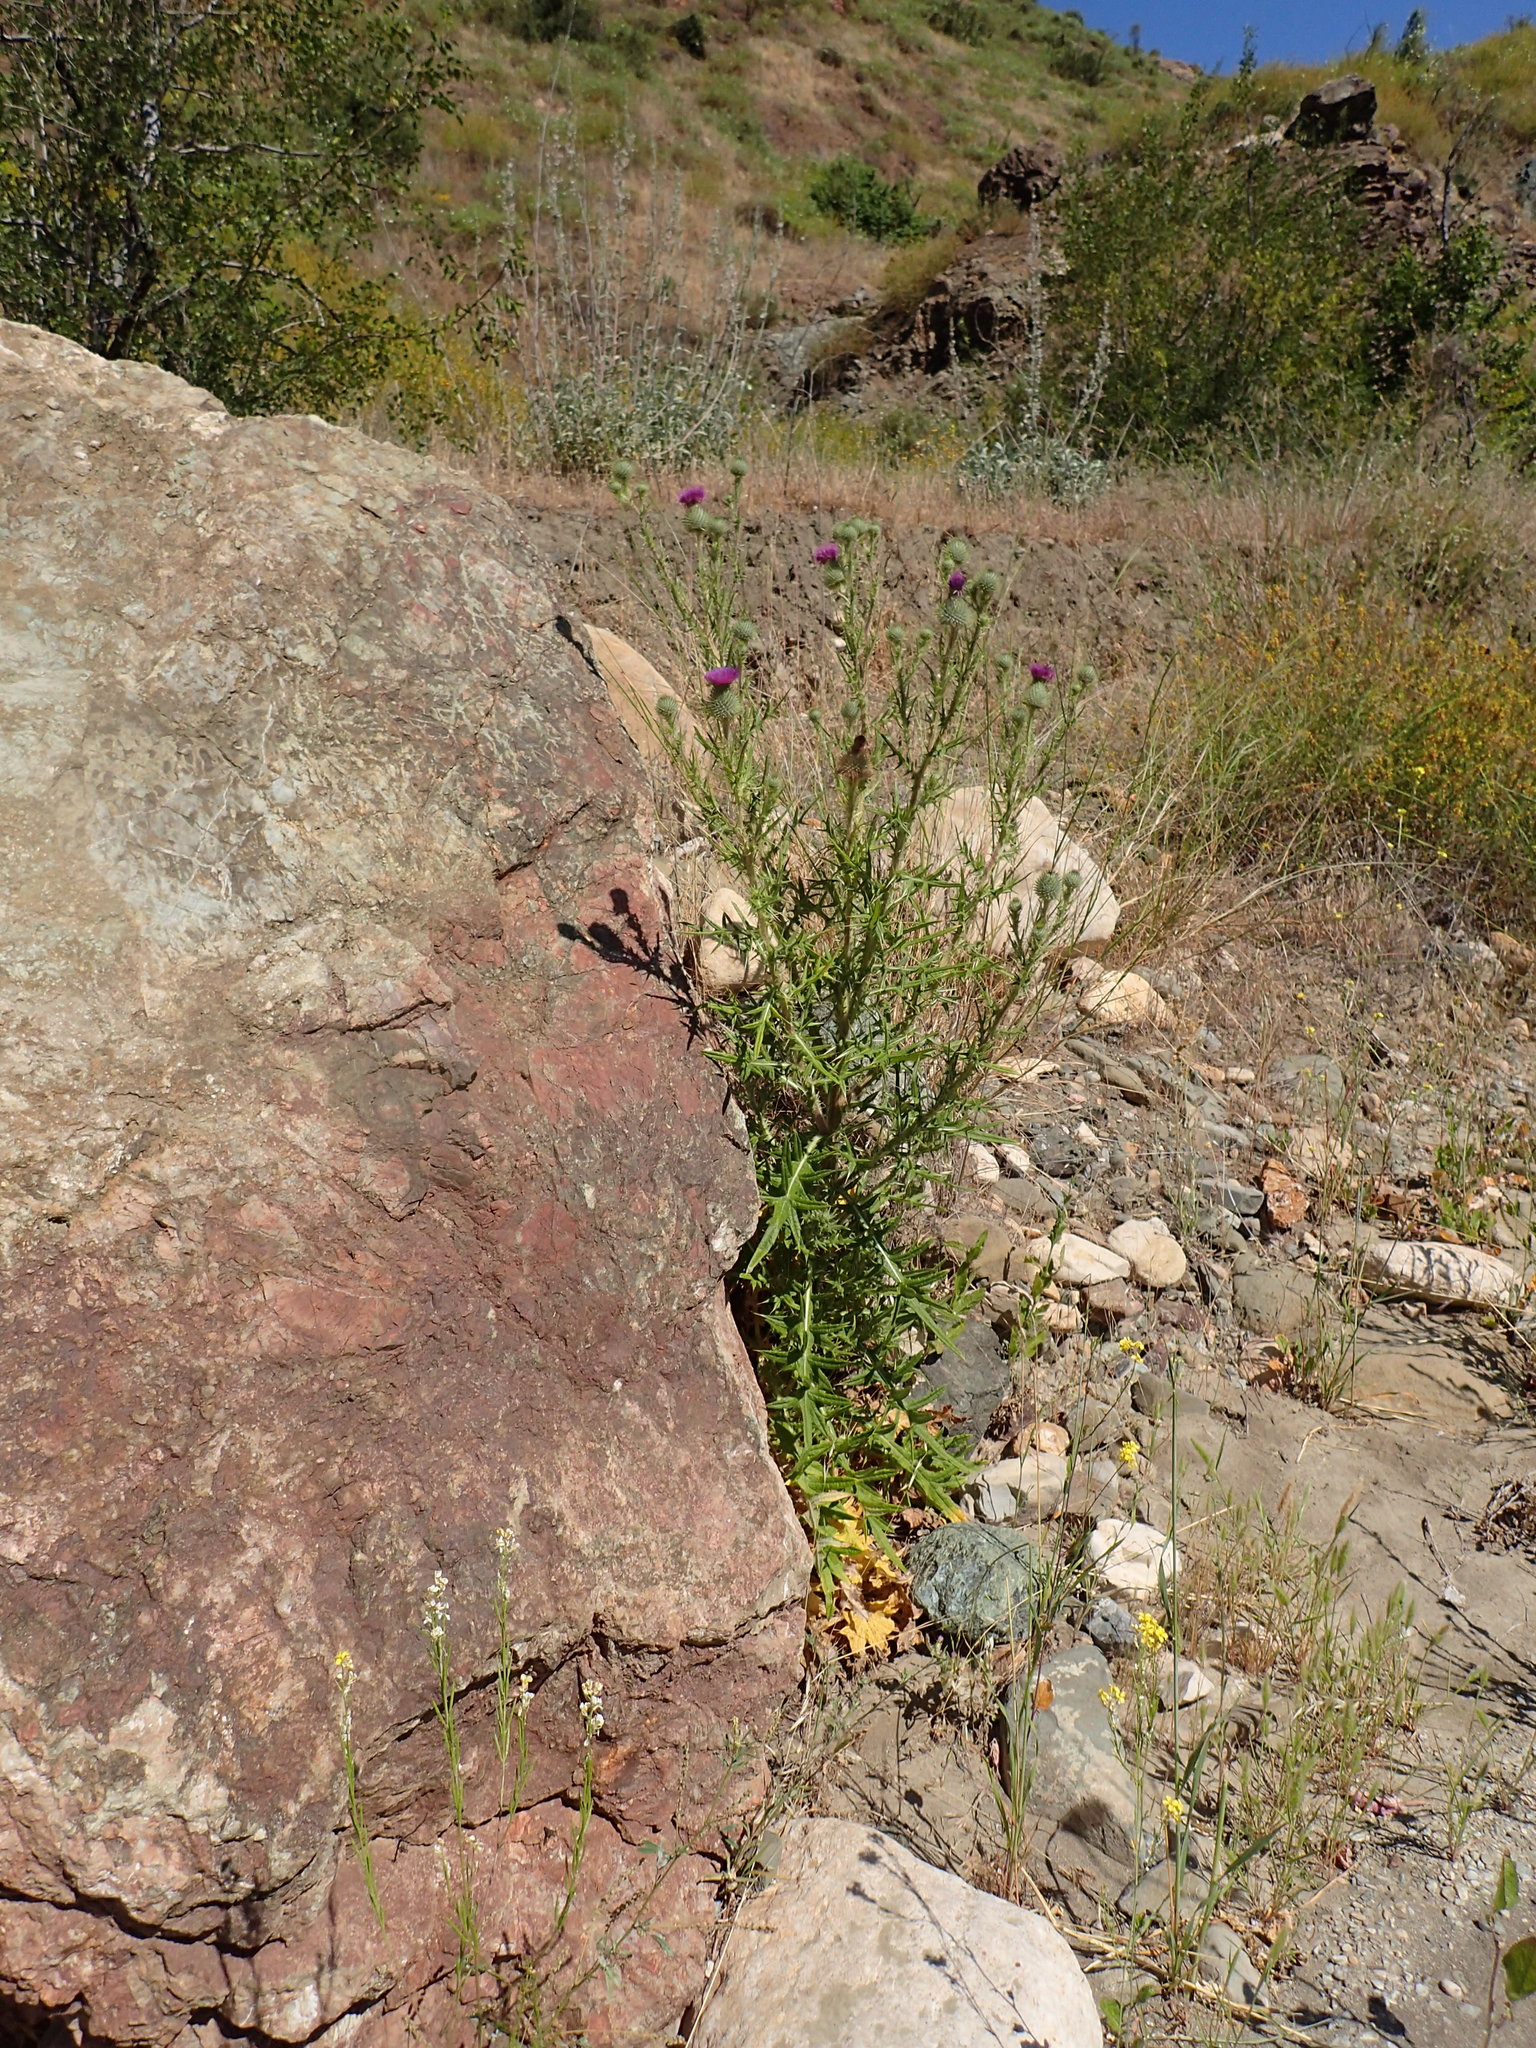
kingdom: Plantae
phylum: Tracheophyta
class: Magnoliopsida
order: Asterales
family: Asteraceae
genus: Cirsium
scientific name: Cirsium vulgare
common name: Bull thistle
